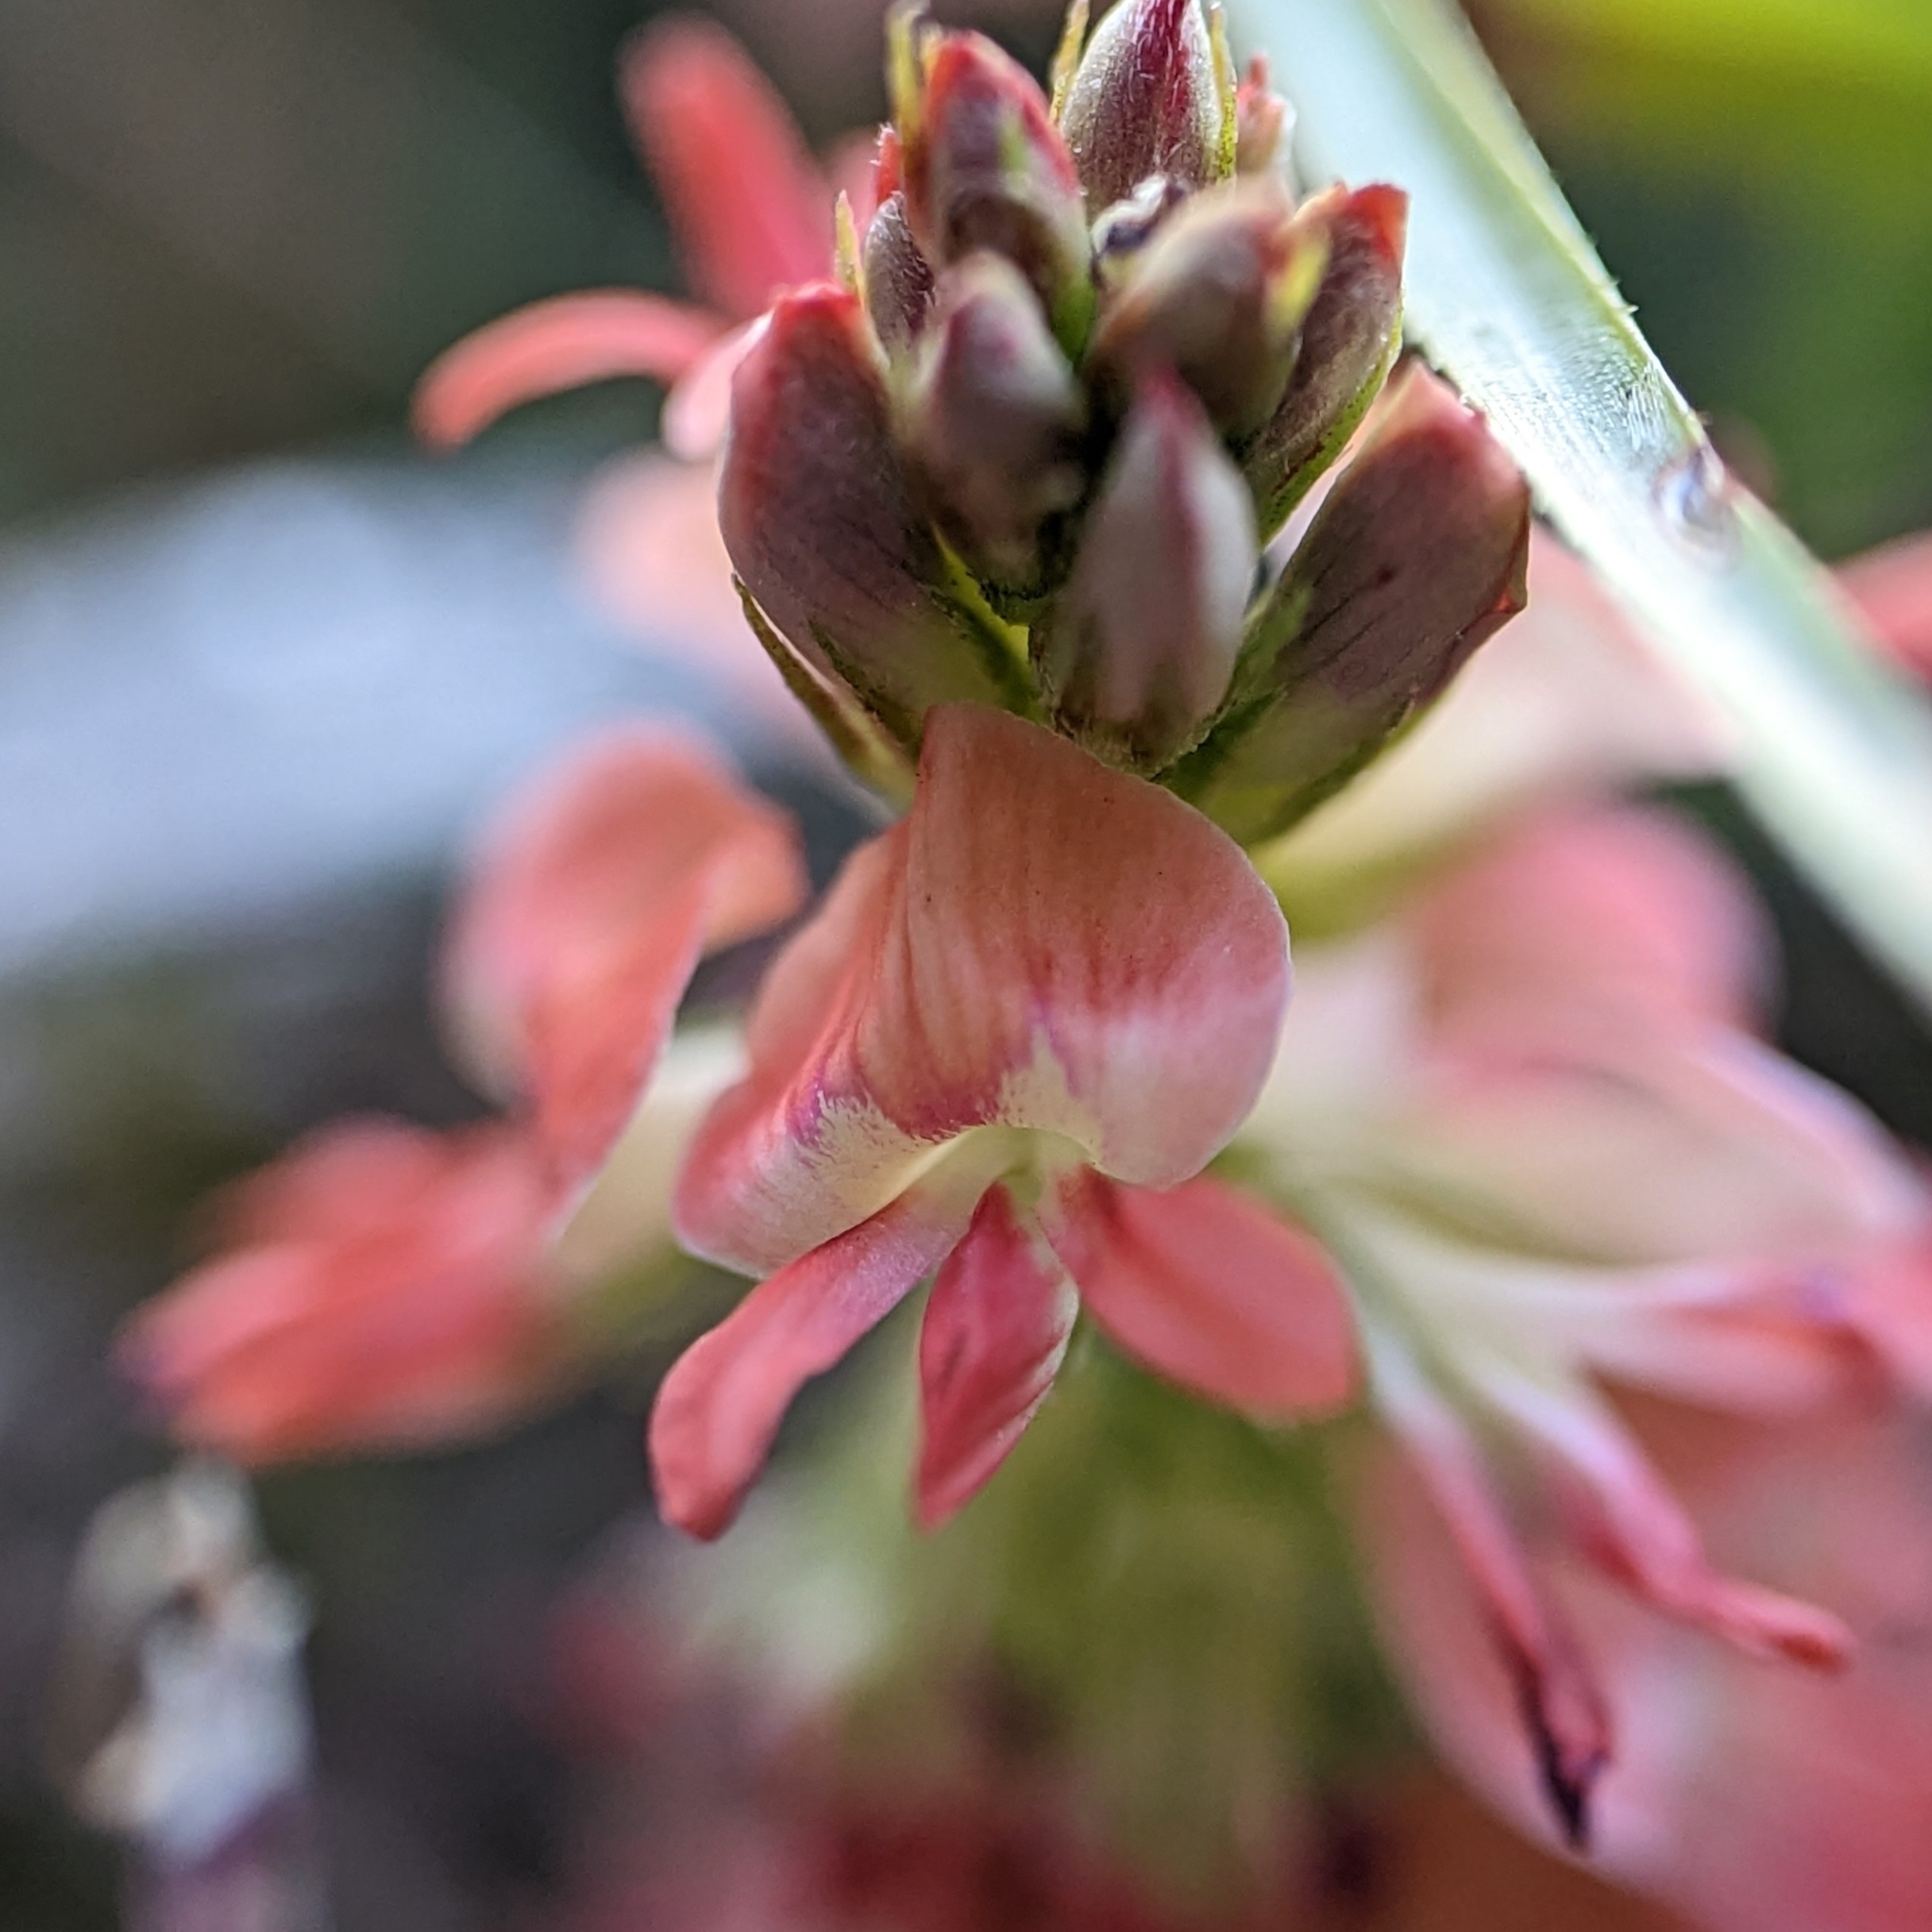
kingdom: Plantae
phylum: Tracheophyta
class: Magnoliopsida
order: Fabales
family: Fabaceae
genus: Indigofera
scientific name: Indigofera spicata
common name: Creeping indigo
